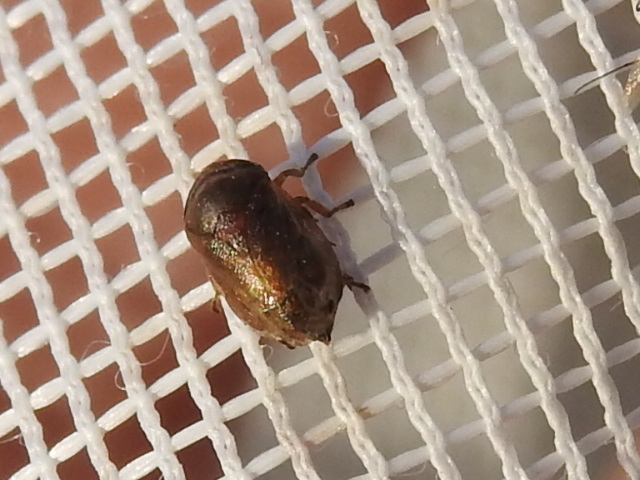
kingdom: Animalia
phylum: Arthropoda
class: Insecta
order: Hemiptera
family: Clastopteridae
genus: Clastoptera
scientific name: Clastoptera xanthocephala
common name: Sunflower spittlebug
